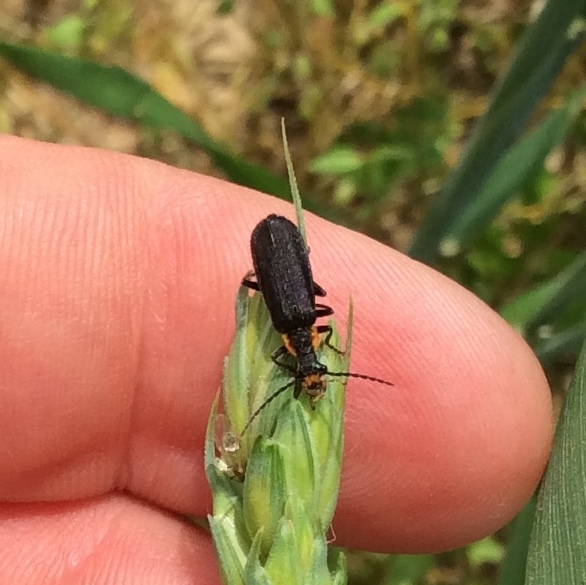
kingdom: Animalia
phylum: Arthropoda
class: Insecta
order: Coleoptera
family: Cantharidae
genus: Podabrus
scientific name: Podabrus rugosulus
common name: Wrinkled soldier beetle
